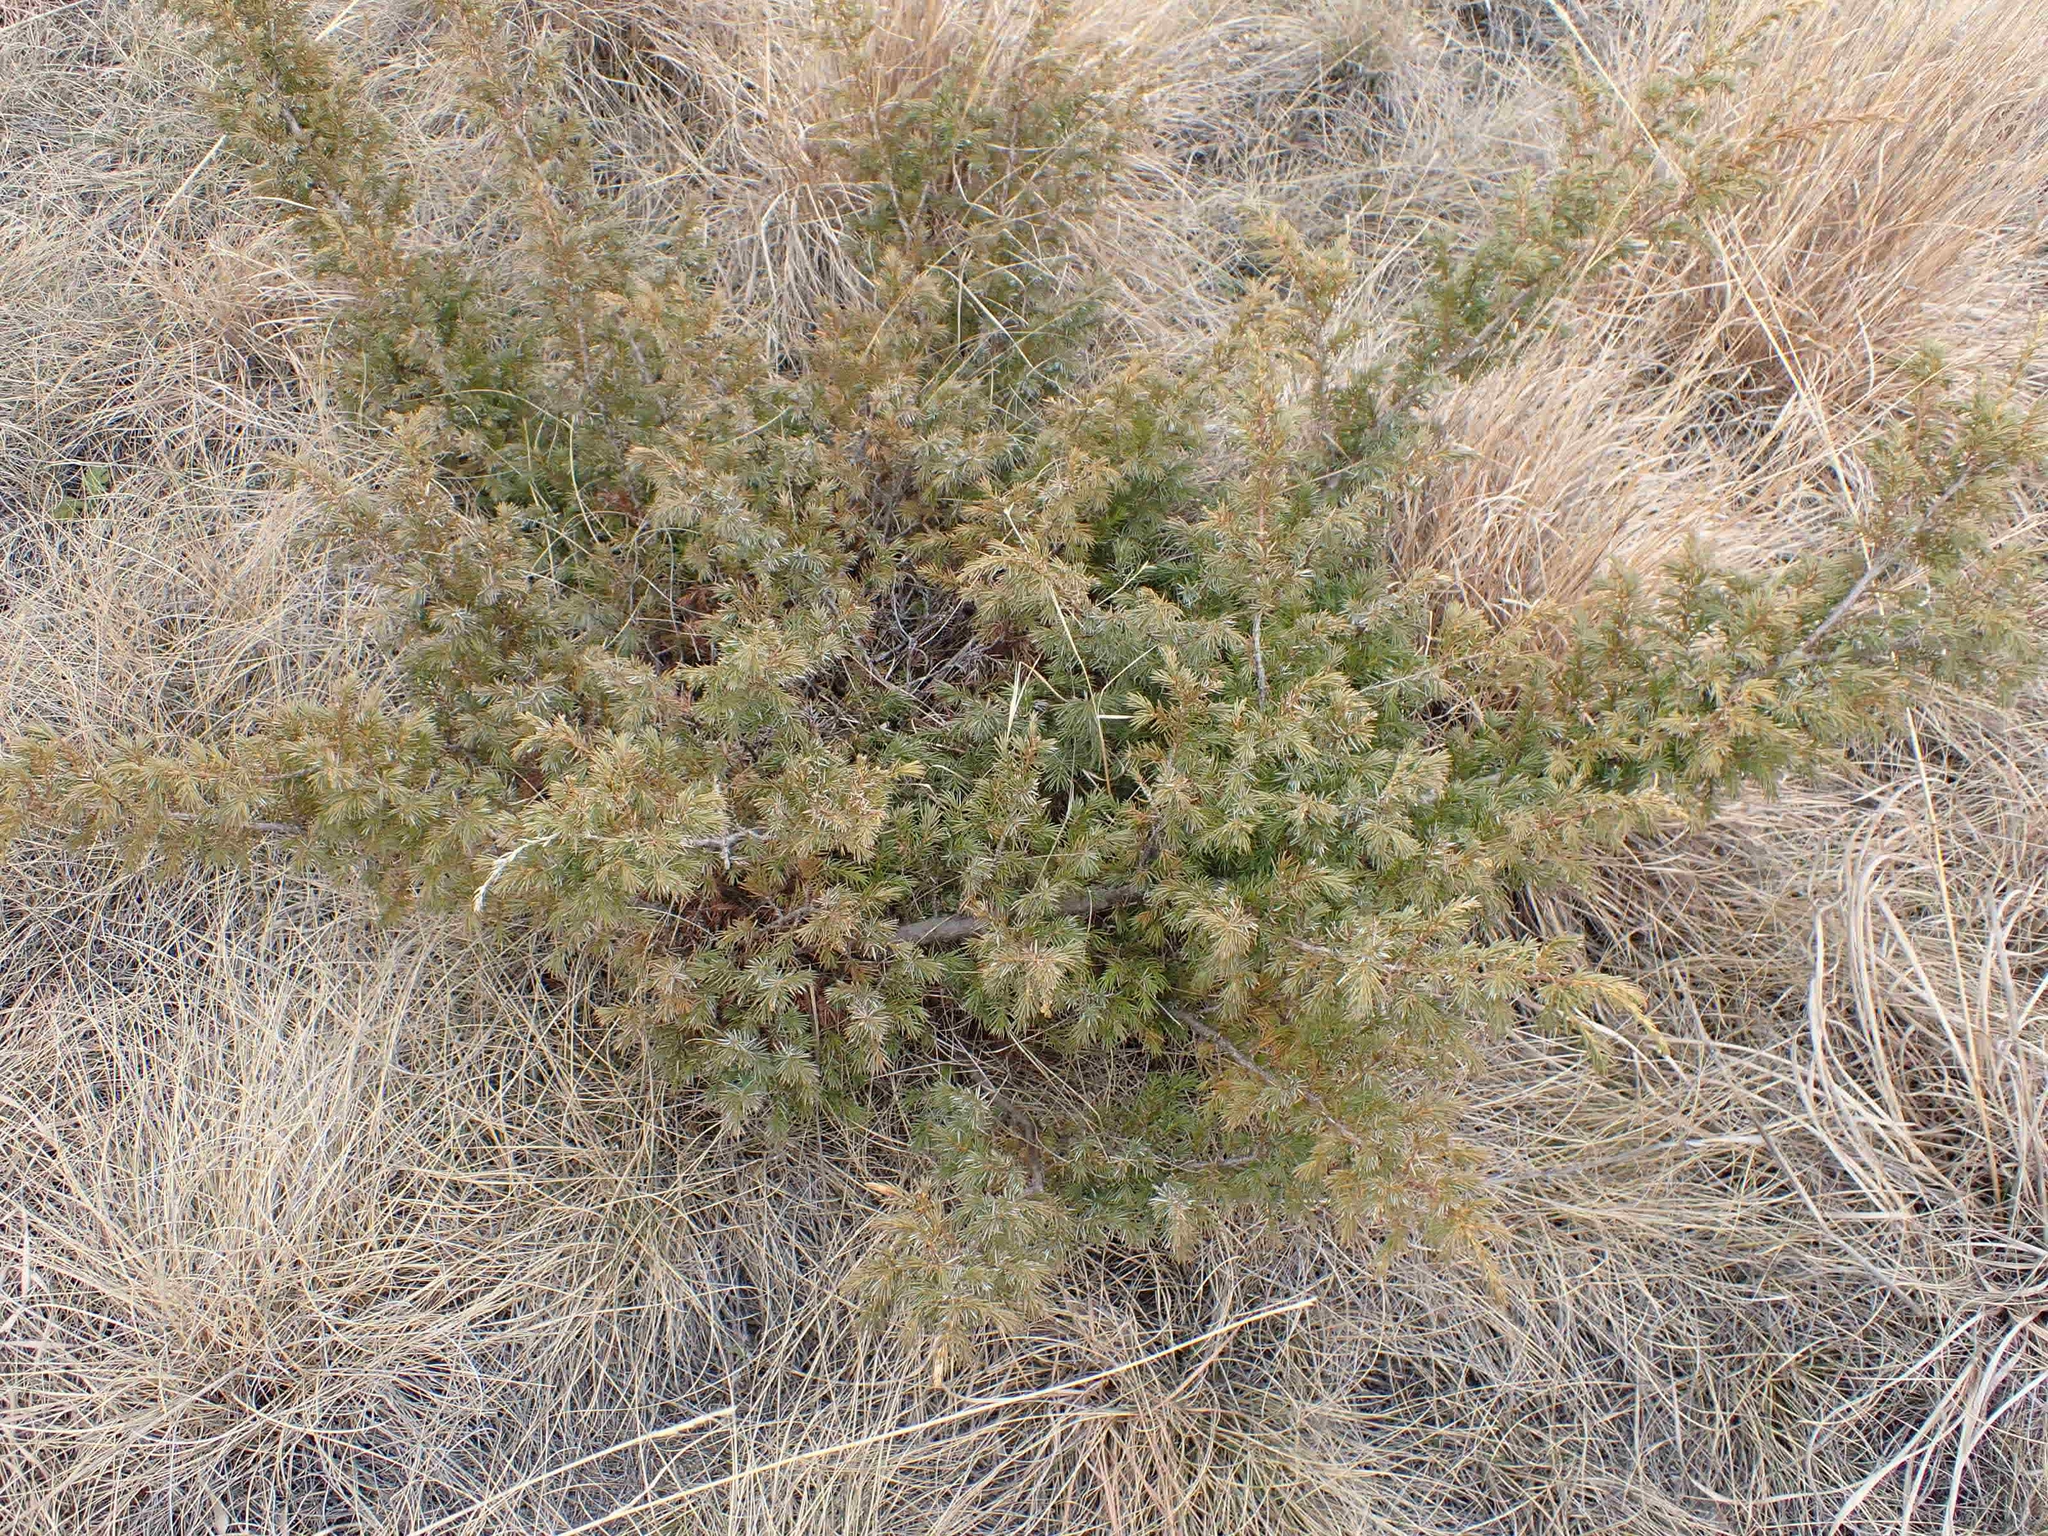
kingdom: Plantae
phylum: Tracheophyta
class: Pinopsida
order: Pinales
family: Cupressaceae
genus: Juniperus
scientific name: Juniperus communis
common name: Common juniper
